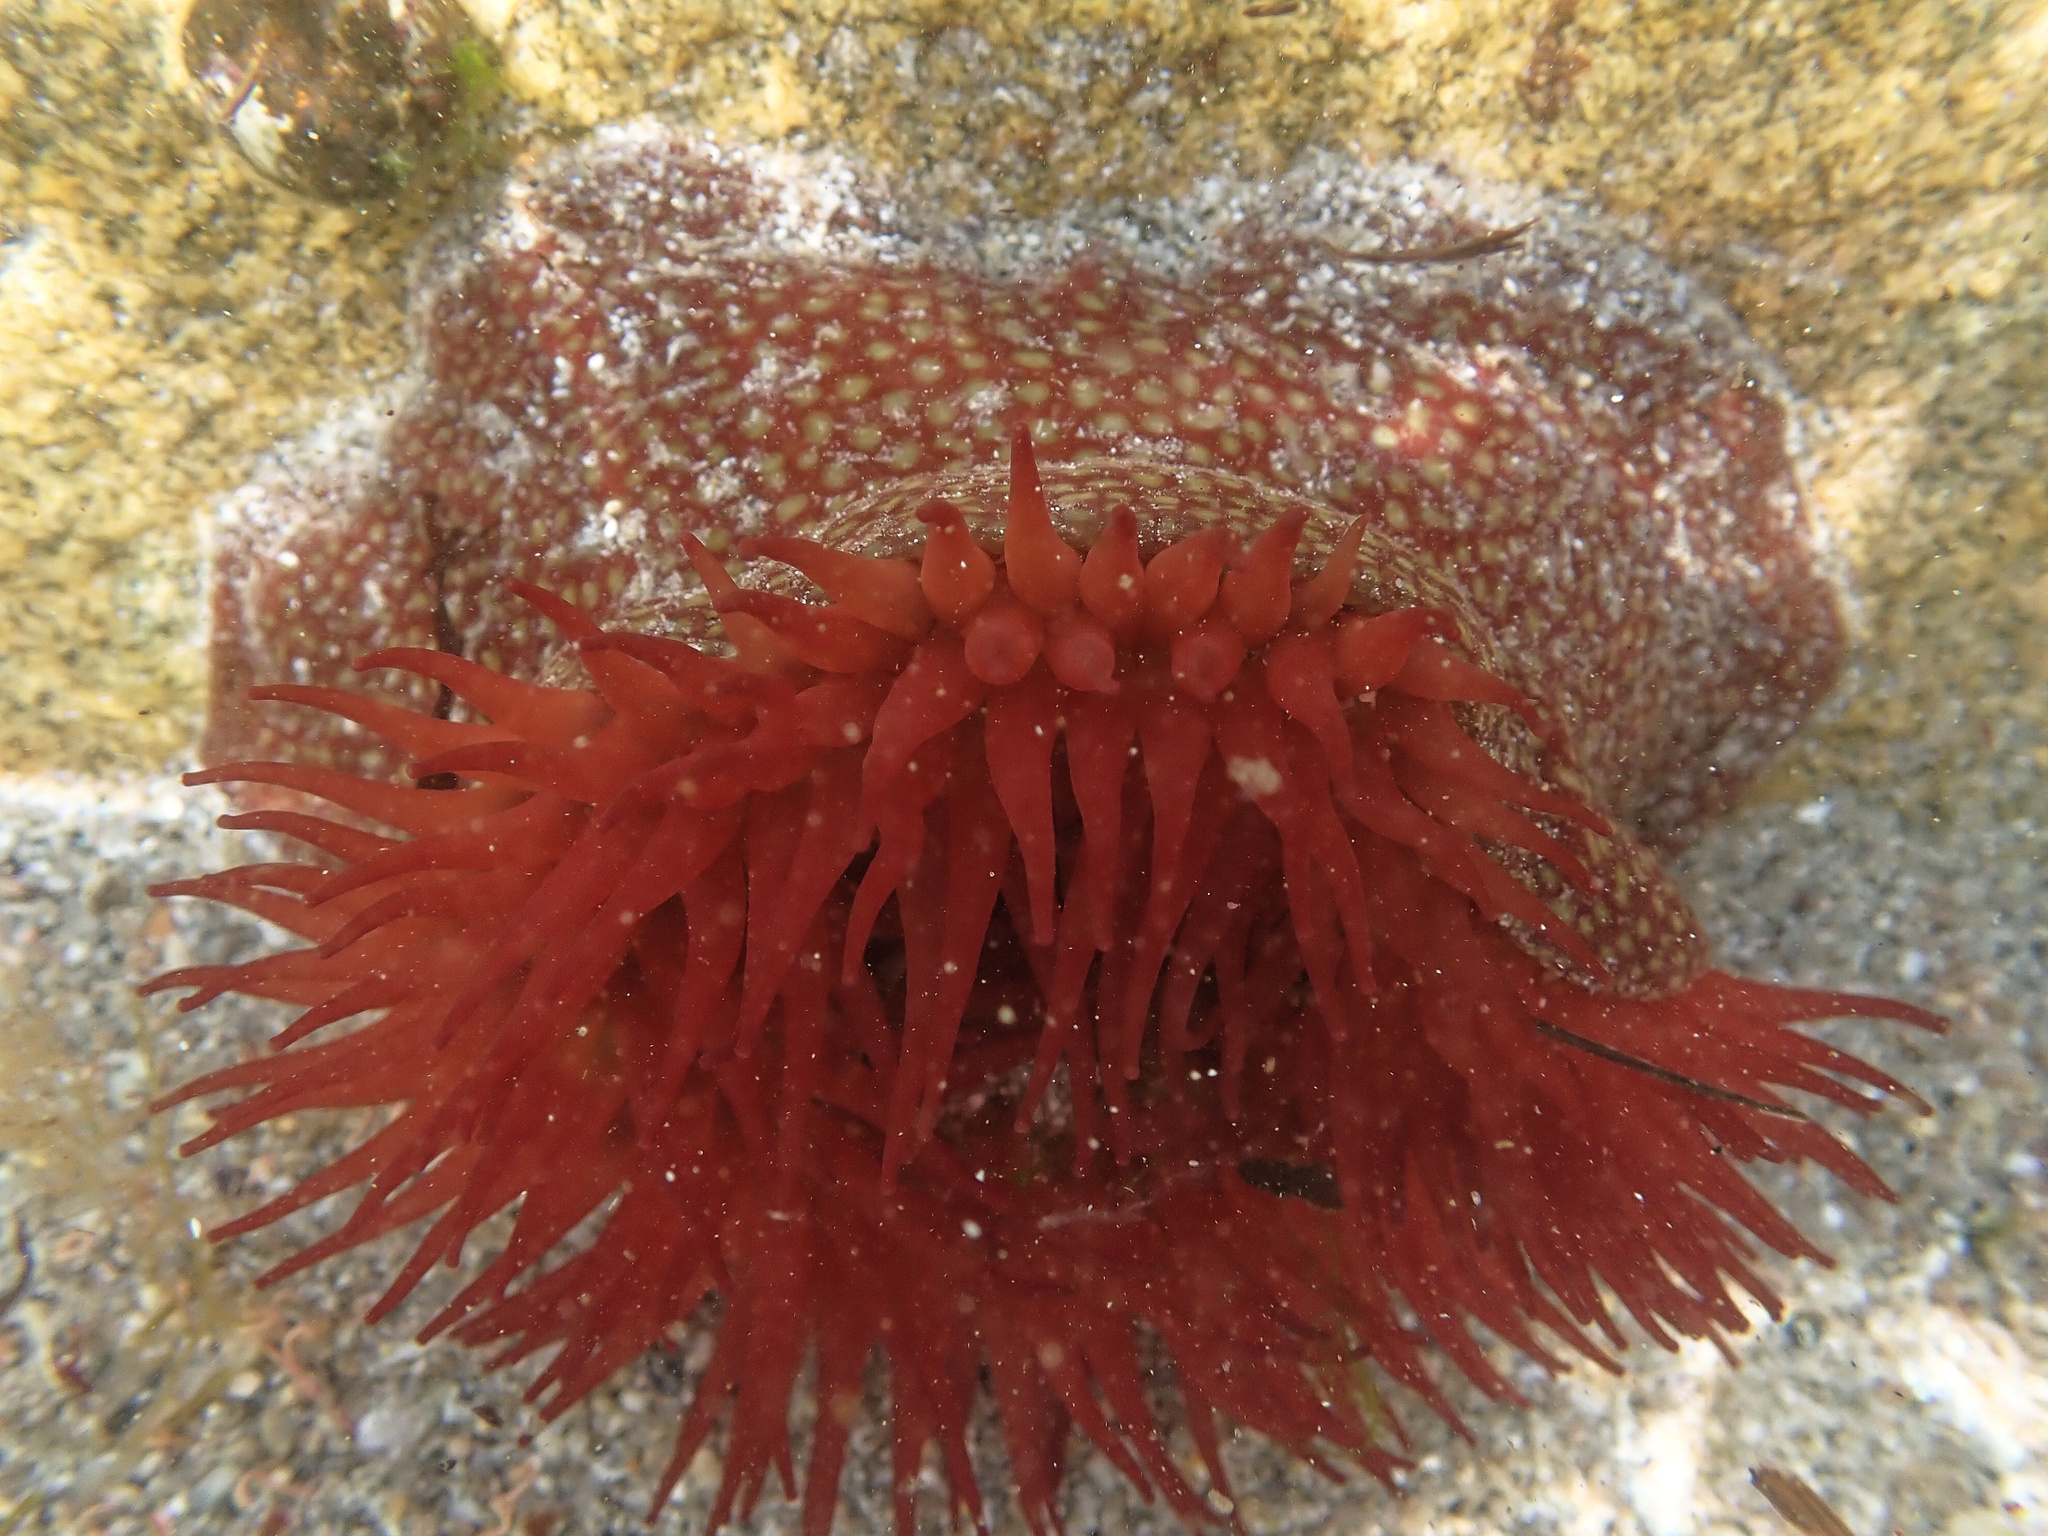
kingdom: Animalia
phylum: Cnidaria
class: Anthozoa
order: Actiniaria
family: Actiniidae
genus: Actinia
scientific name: Actinia fragacea
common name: Strawberry anemone
